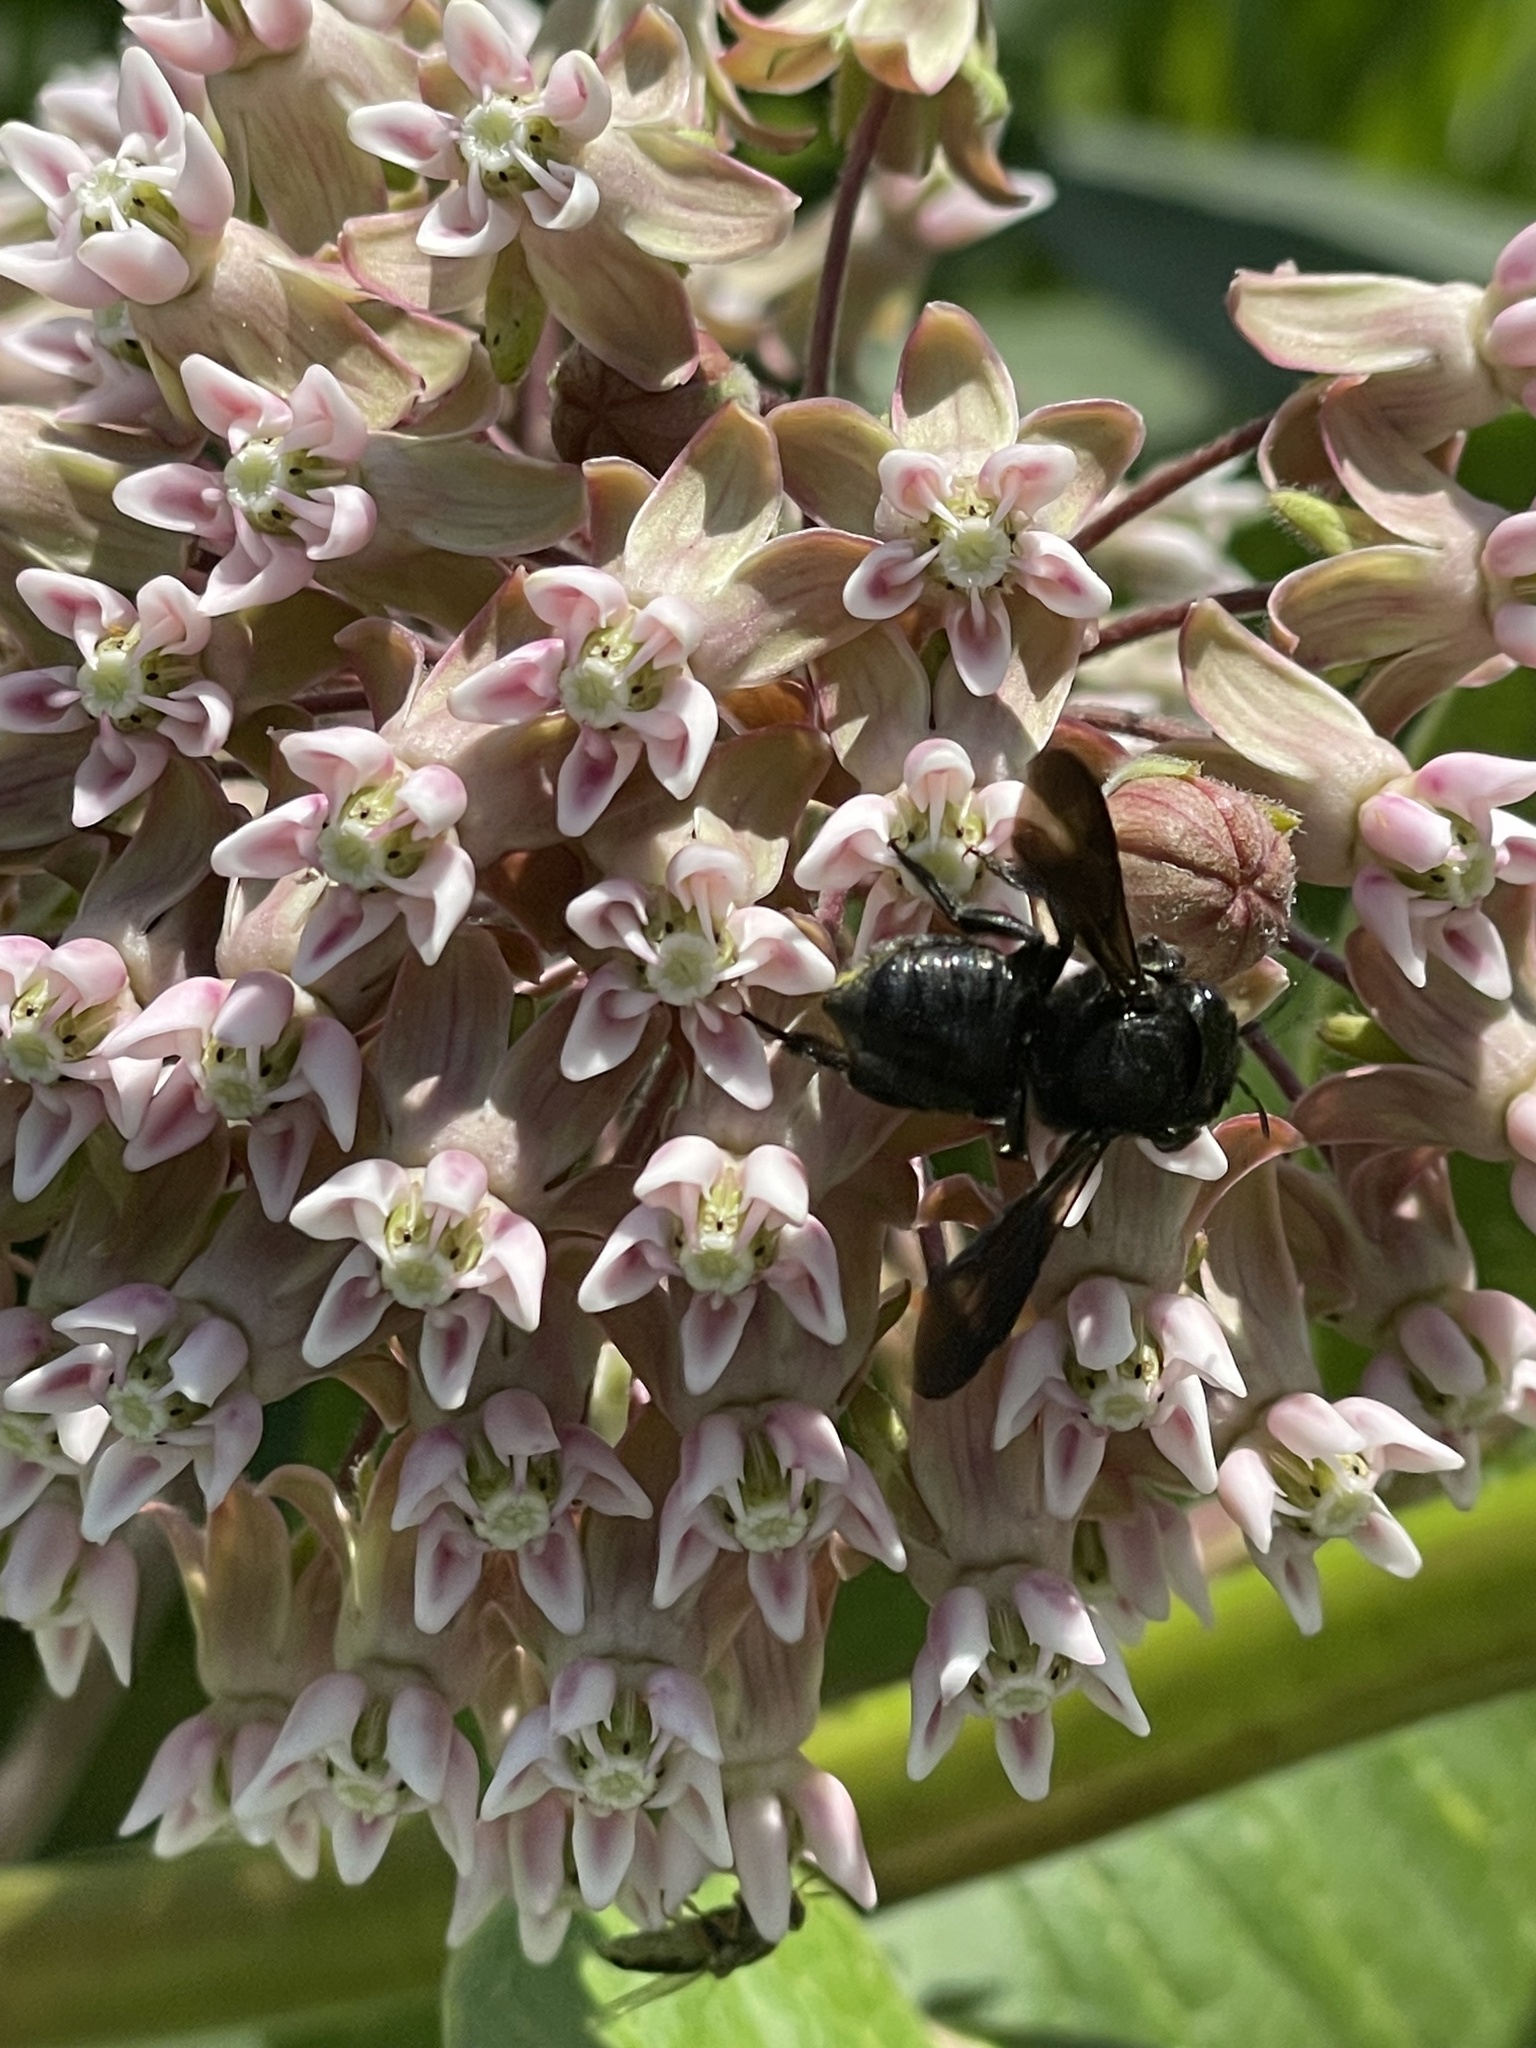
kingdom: Animalia
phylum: Arthropoda
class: Insecta
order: Hymenoptera
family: Megachilidae
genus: Megachile
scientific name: Megachile xylocopoides
